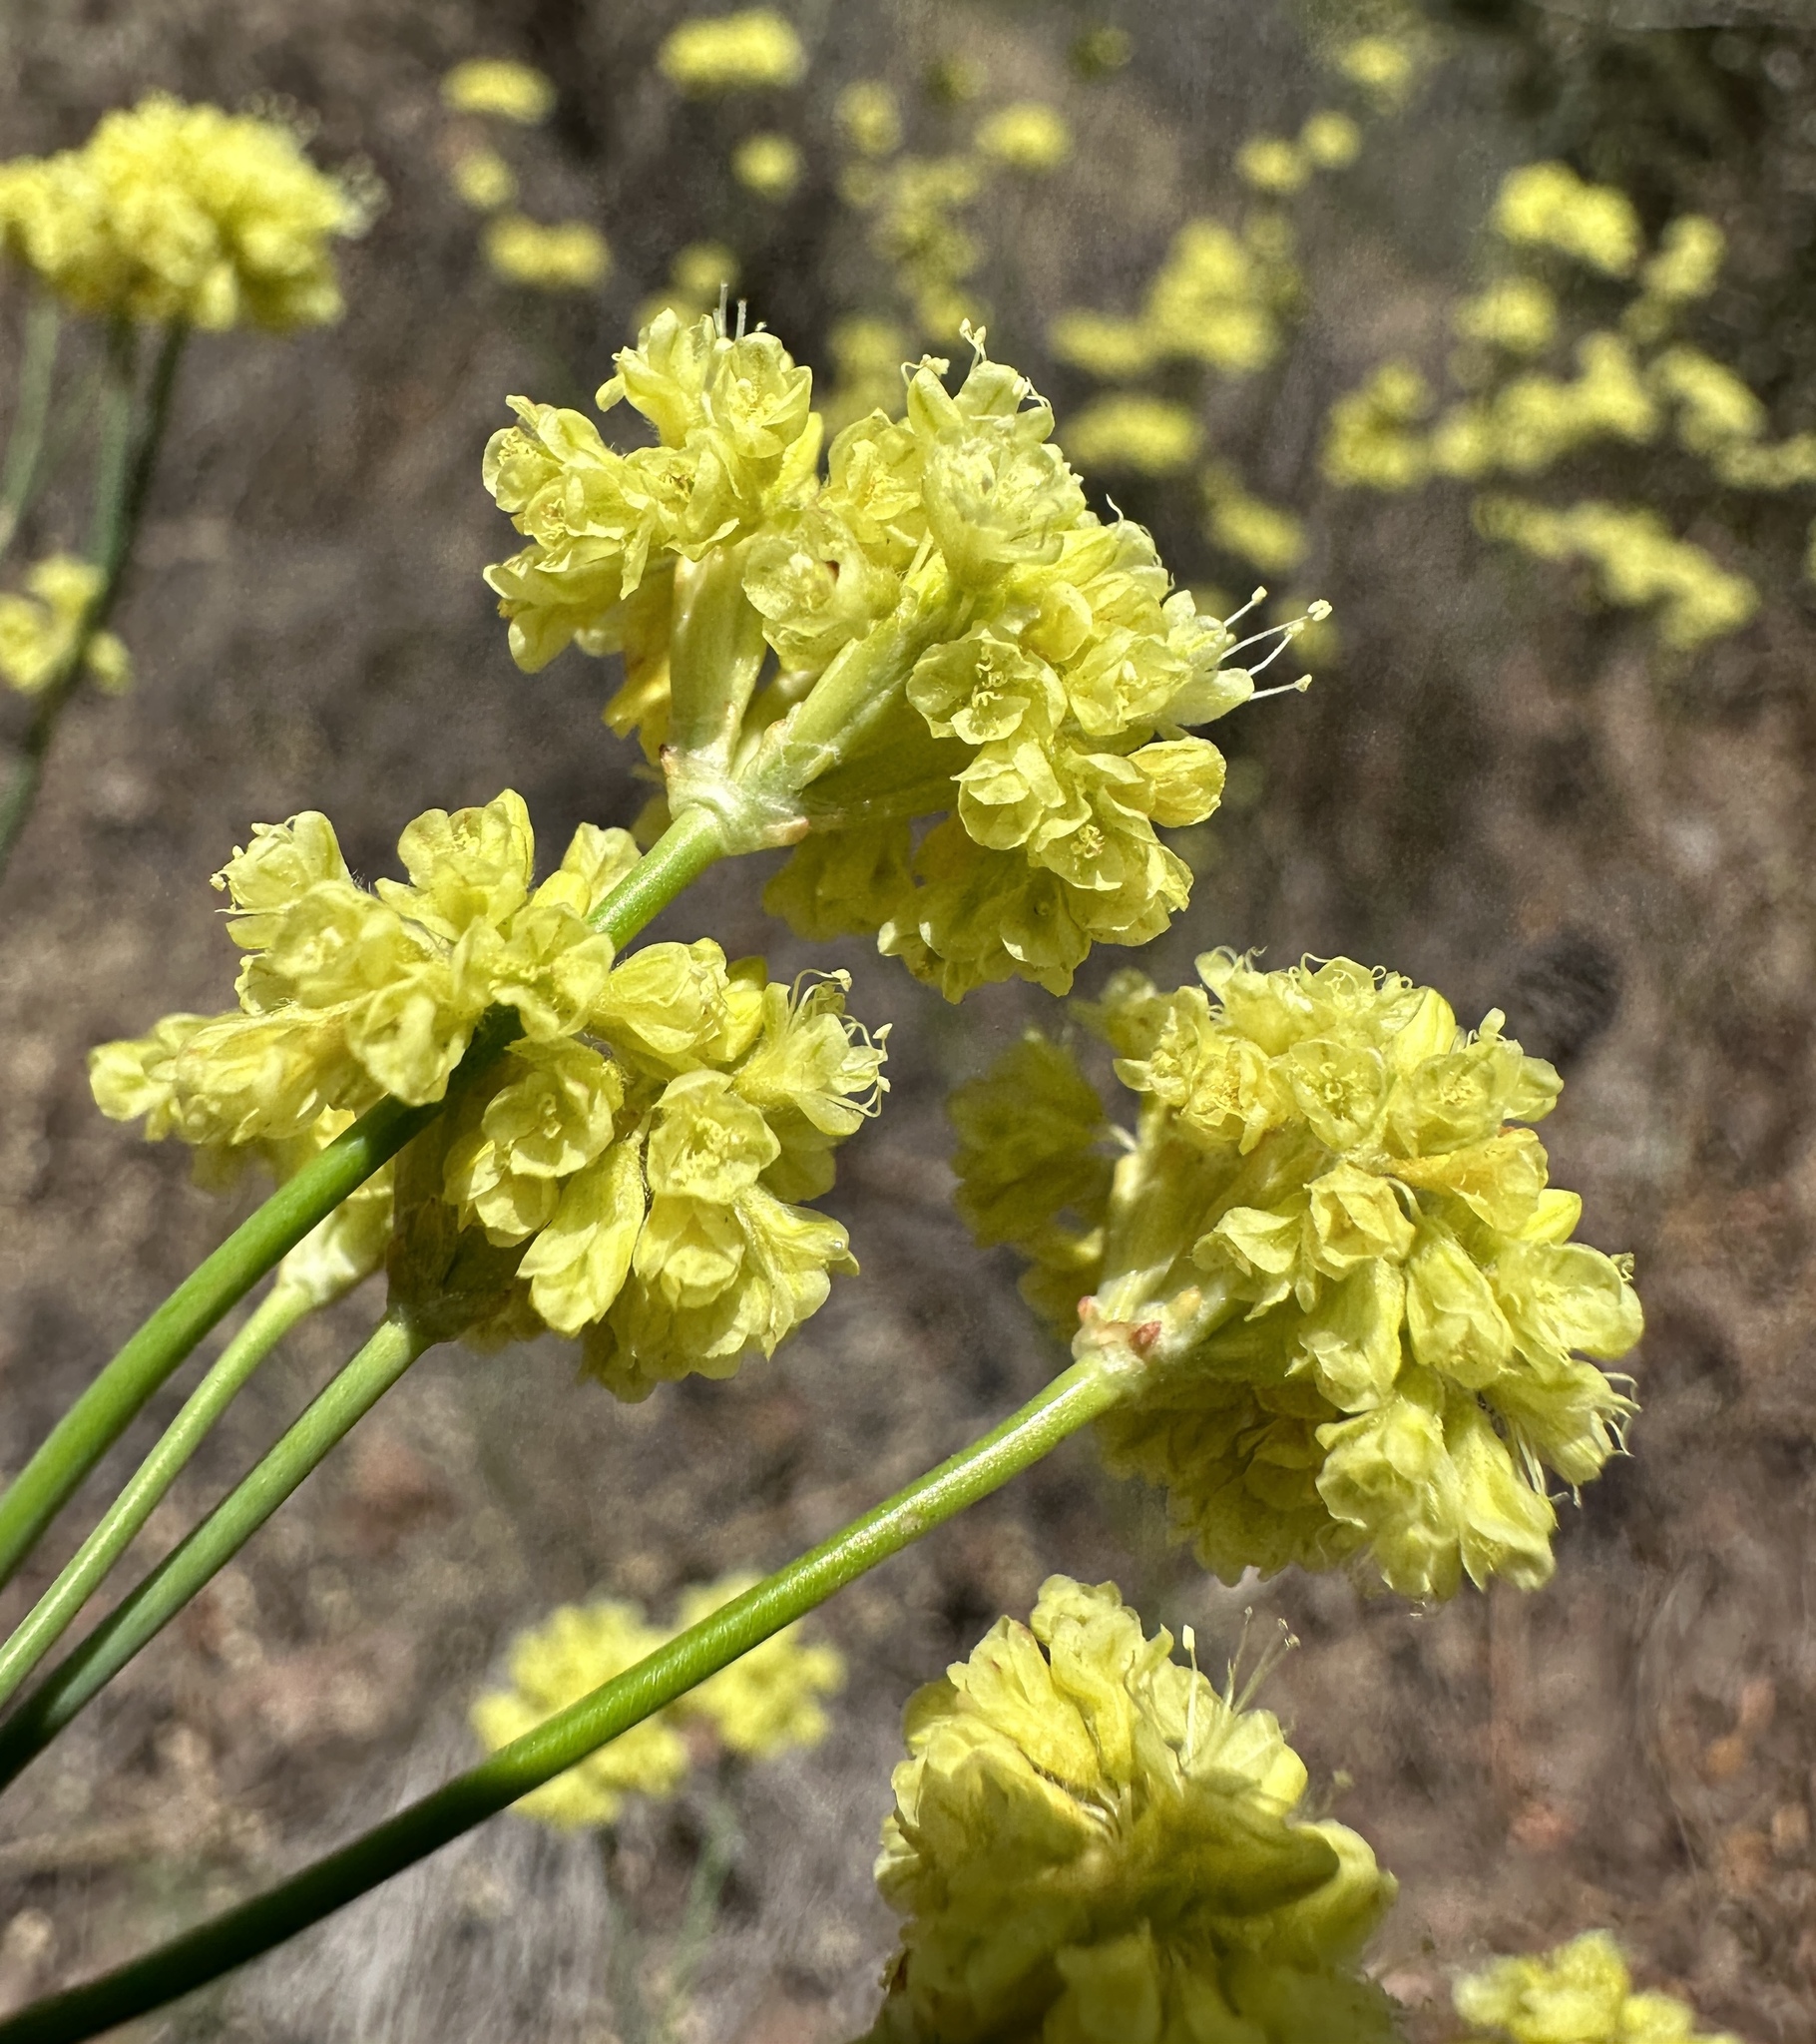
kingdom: Plantae
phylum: Tracheophyta
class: Magnoliopsida
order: Caryophyllales
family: Polygonaceae
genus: Eriogonum
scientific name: Eriogonum nudum
